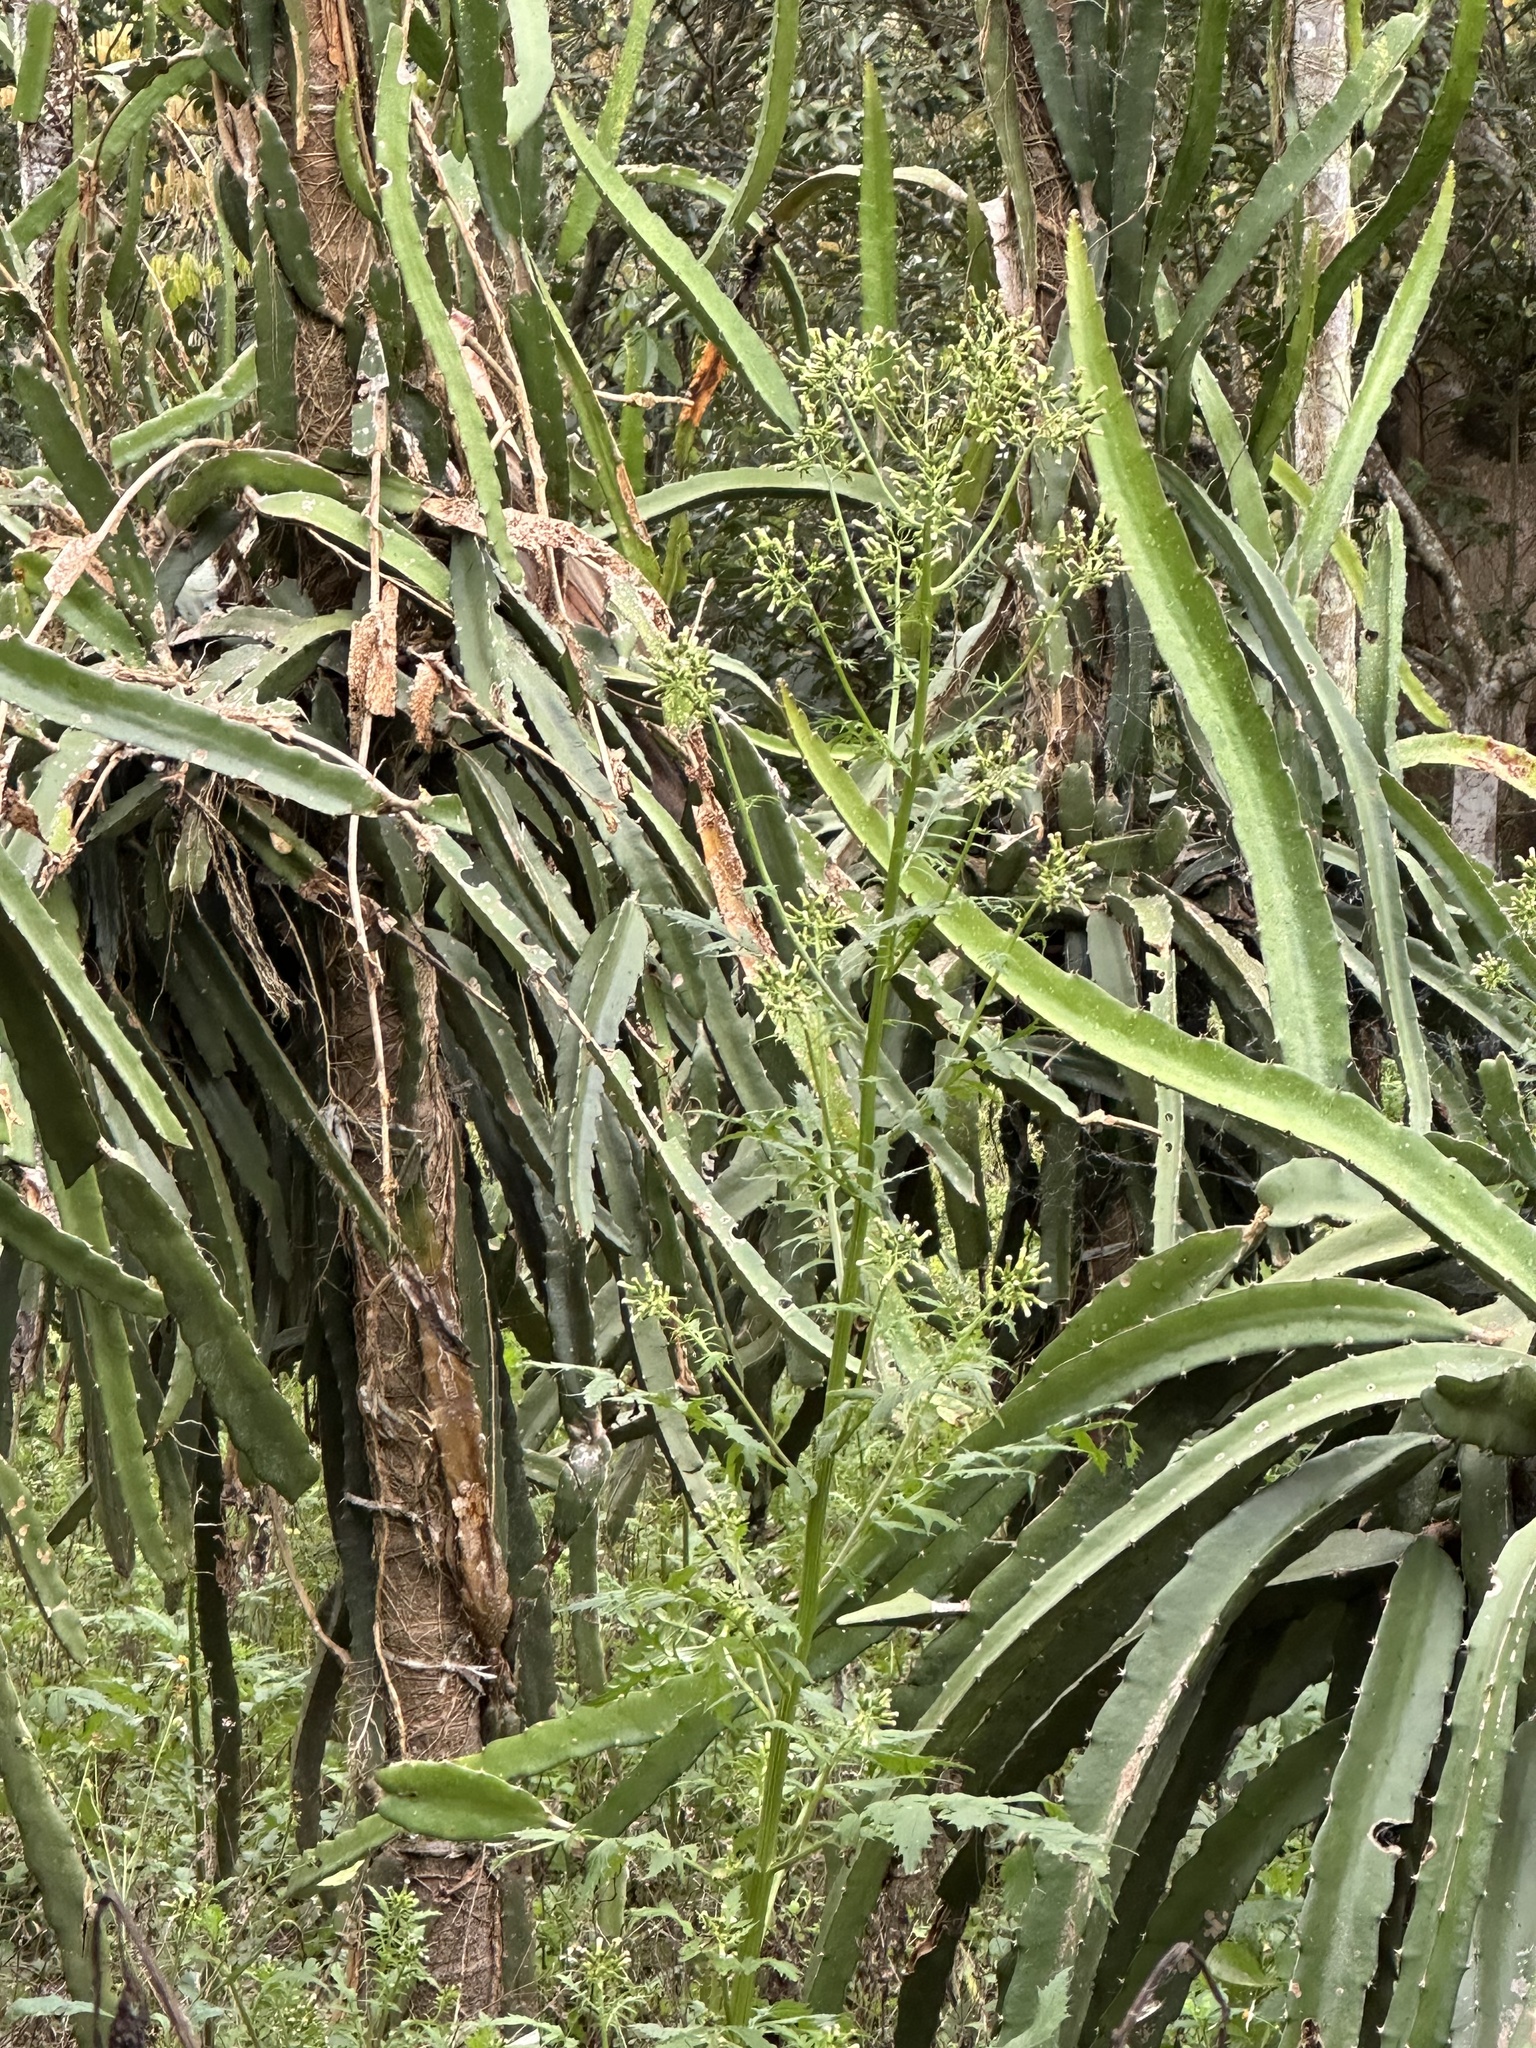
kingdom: Plantae
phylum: Tracheophyta
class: Magnoliopsida
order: Asterales
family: Asteraceae
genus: Erechtites
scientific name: Erechtites valerianifolius
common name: Tropical burnweed
